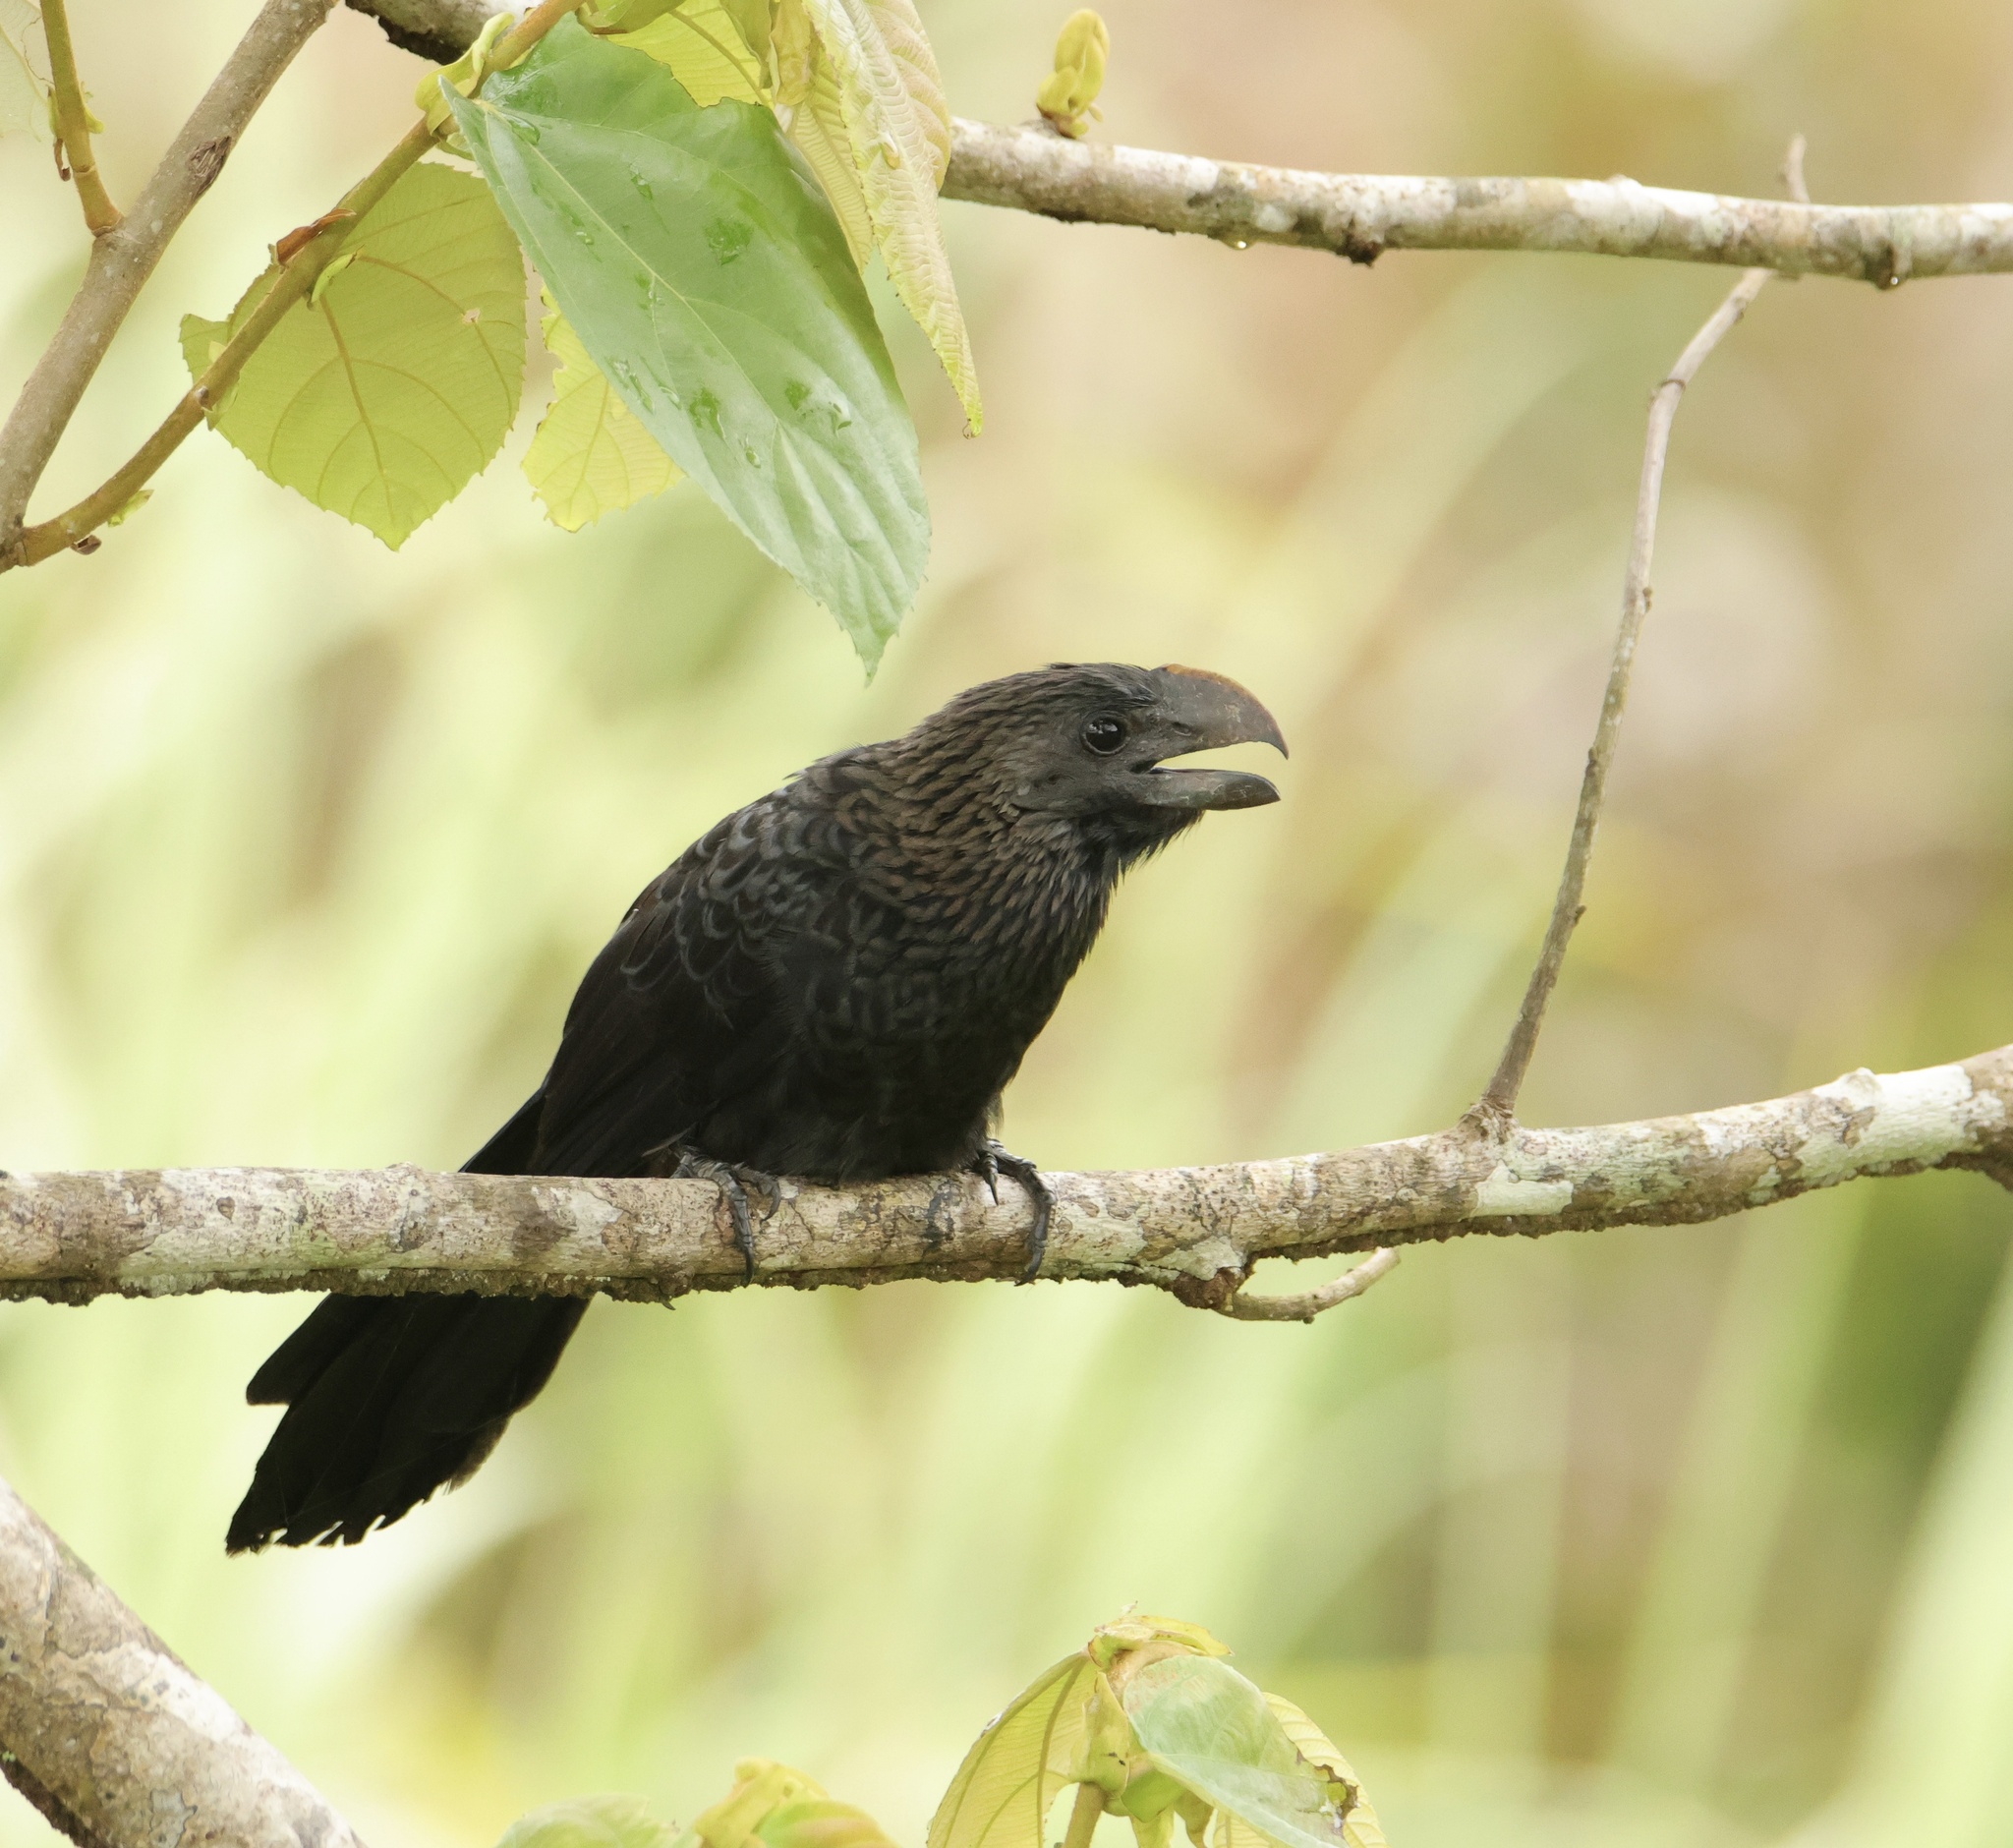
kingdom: Animalia
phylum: Chordata
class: Aves
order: Cuculiformes
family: Cuculidae
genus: Crotophaga
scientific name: Crotophaga ani
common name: Smooth-billed ani
